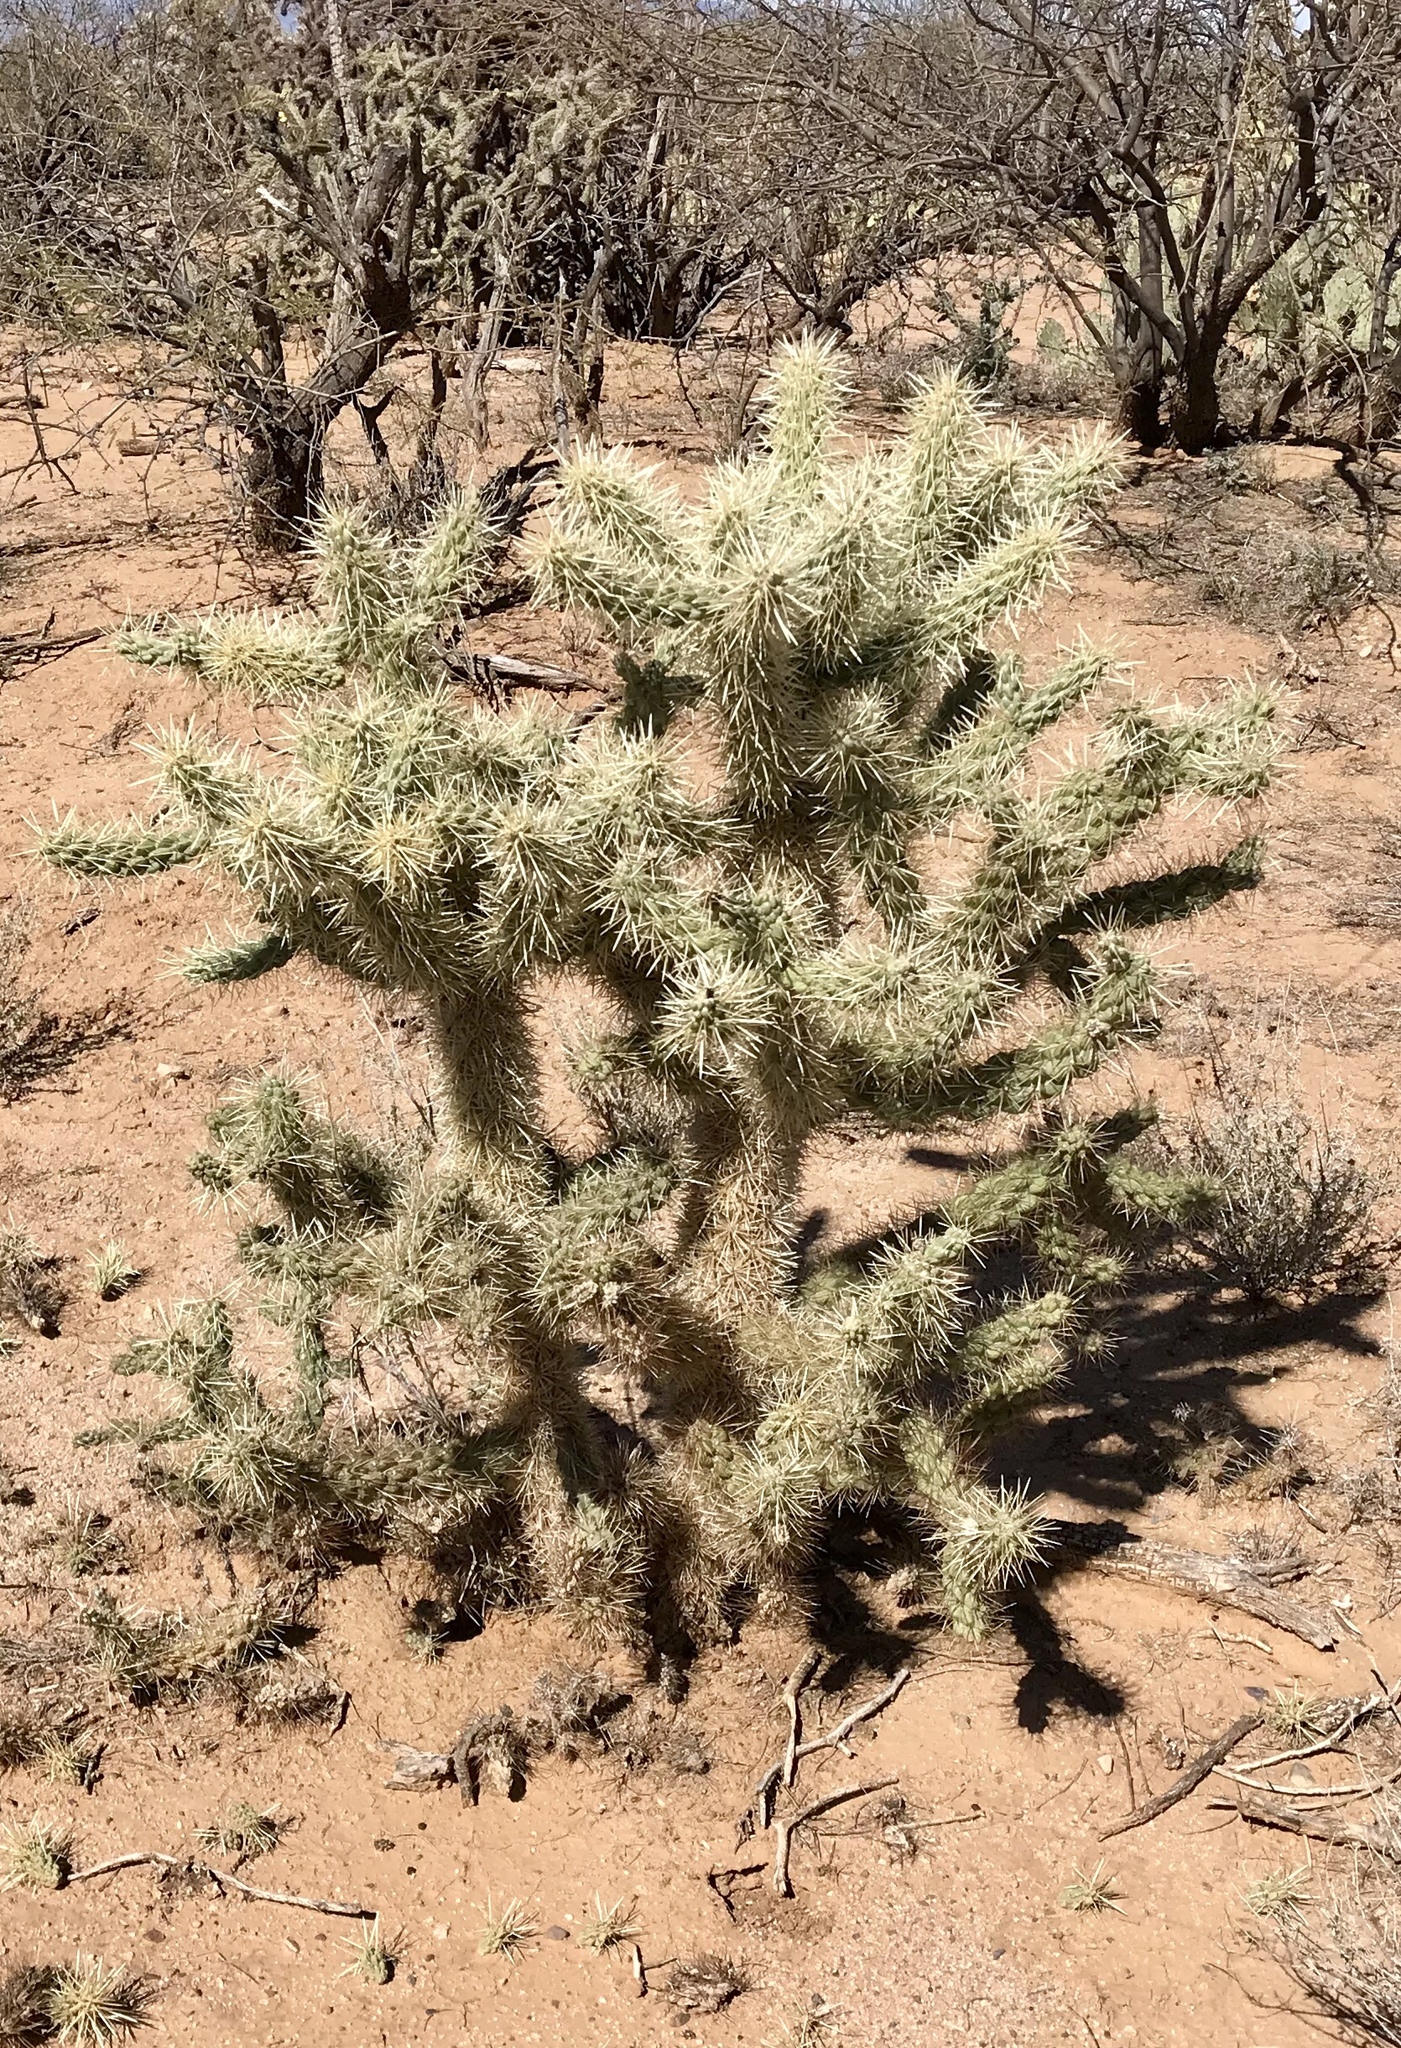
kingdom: Plantae
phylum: Tracheophyta
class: Magnoliopsida
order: Caryophyllales
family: Cactaceae
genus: Cylindropuntia
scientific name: Cylindropuntia fulgida
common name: Jumping cholla
